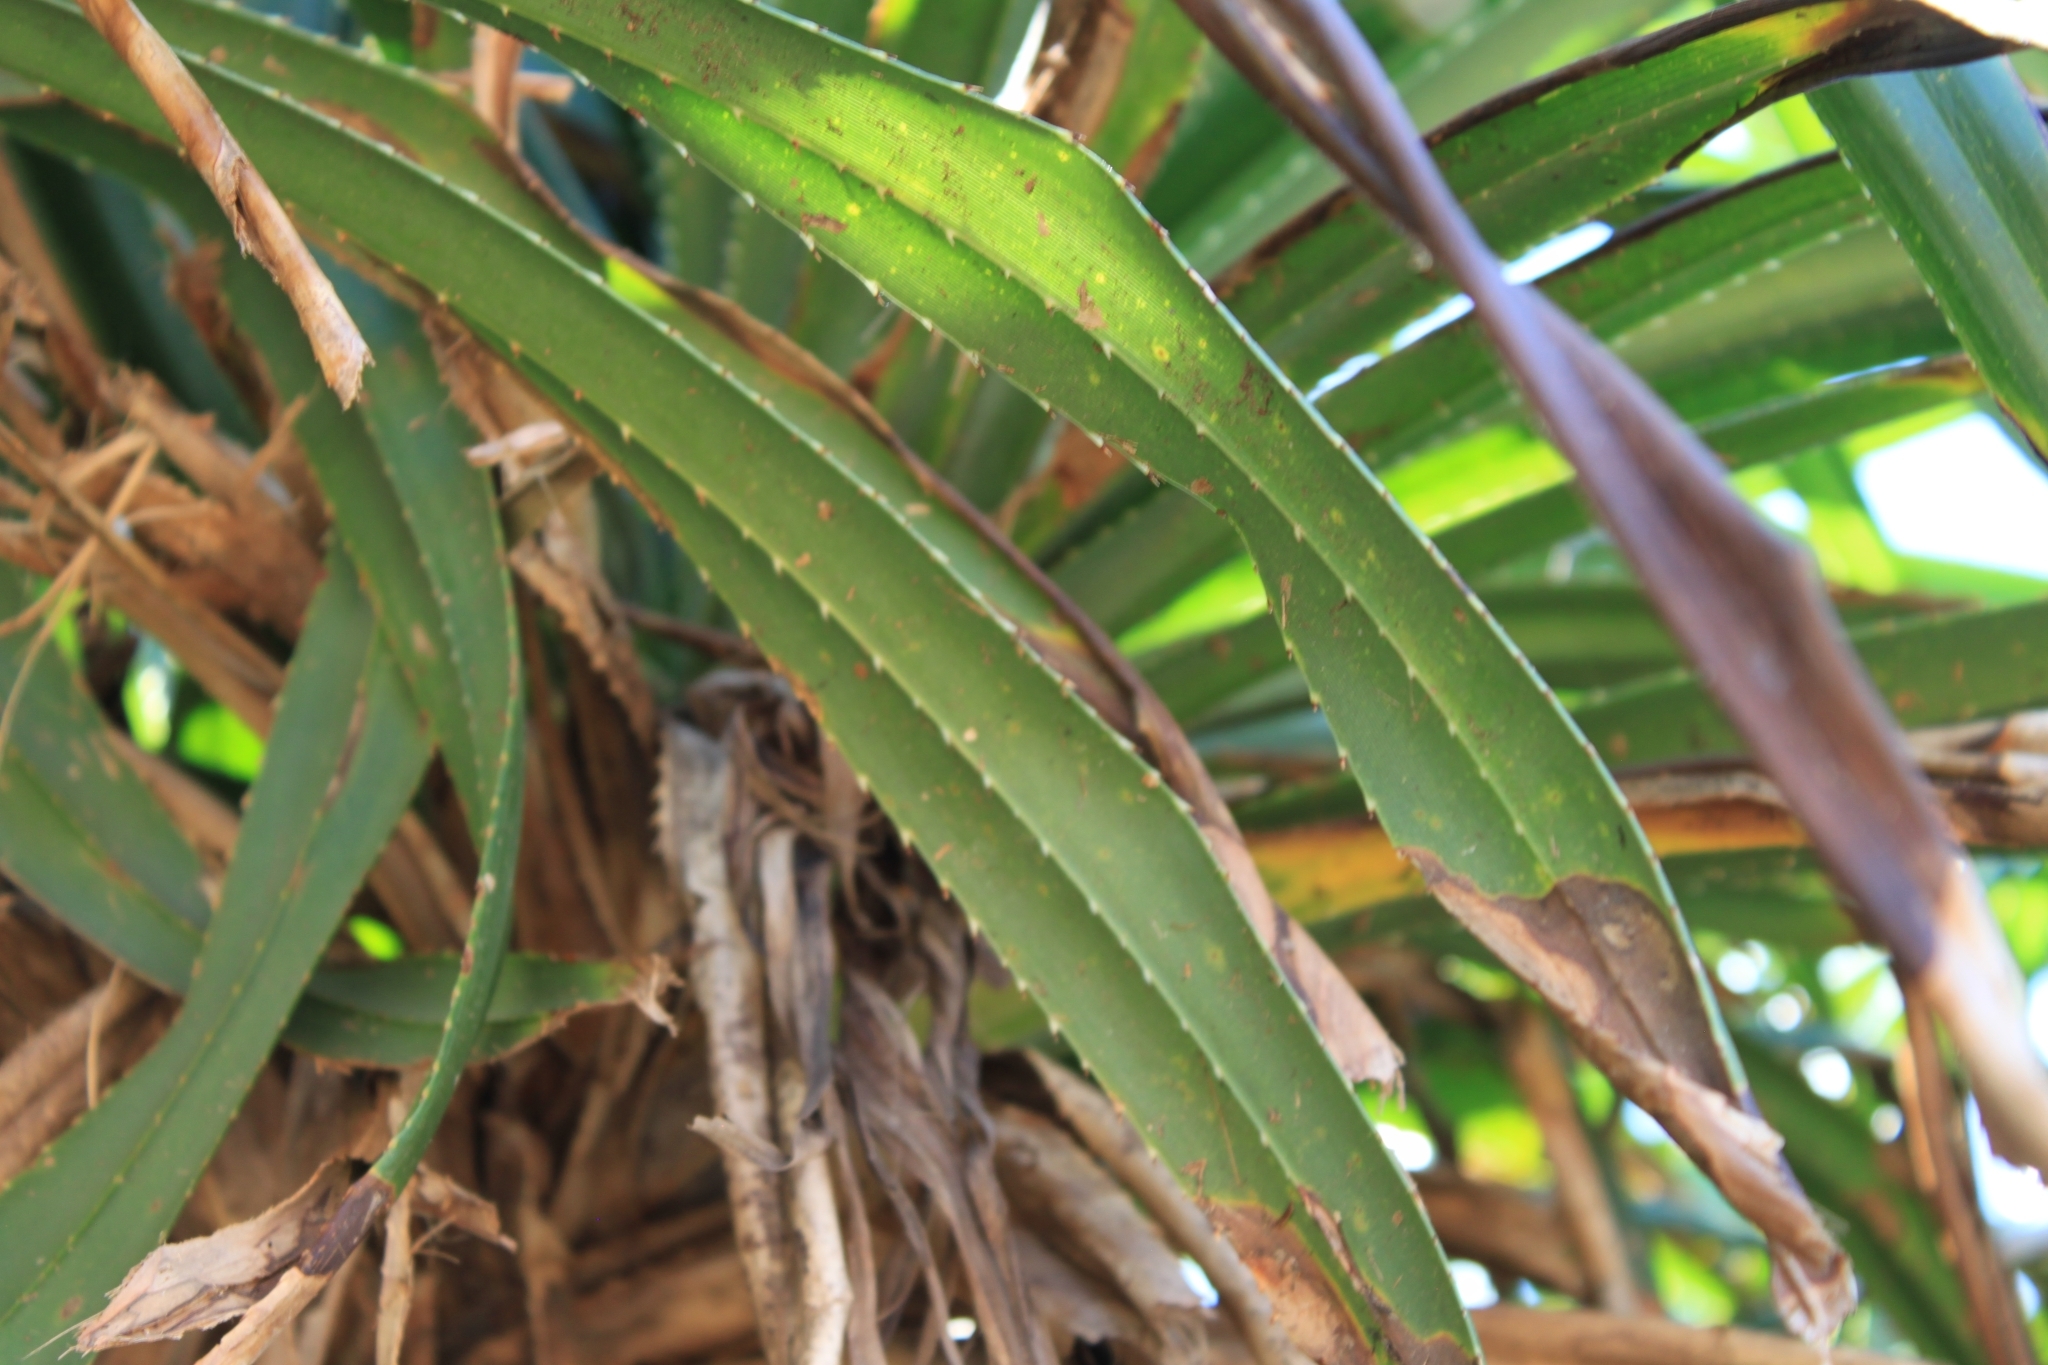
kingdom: Plantae
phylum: Tracheophyta
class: Liliopsida
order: Pandanales
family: Pandanaceae
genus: Pandanus
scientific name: Pandanus odorifer
